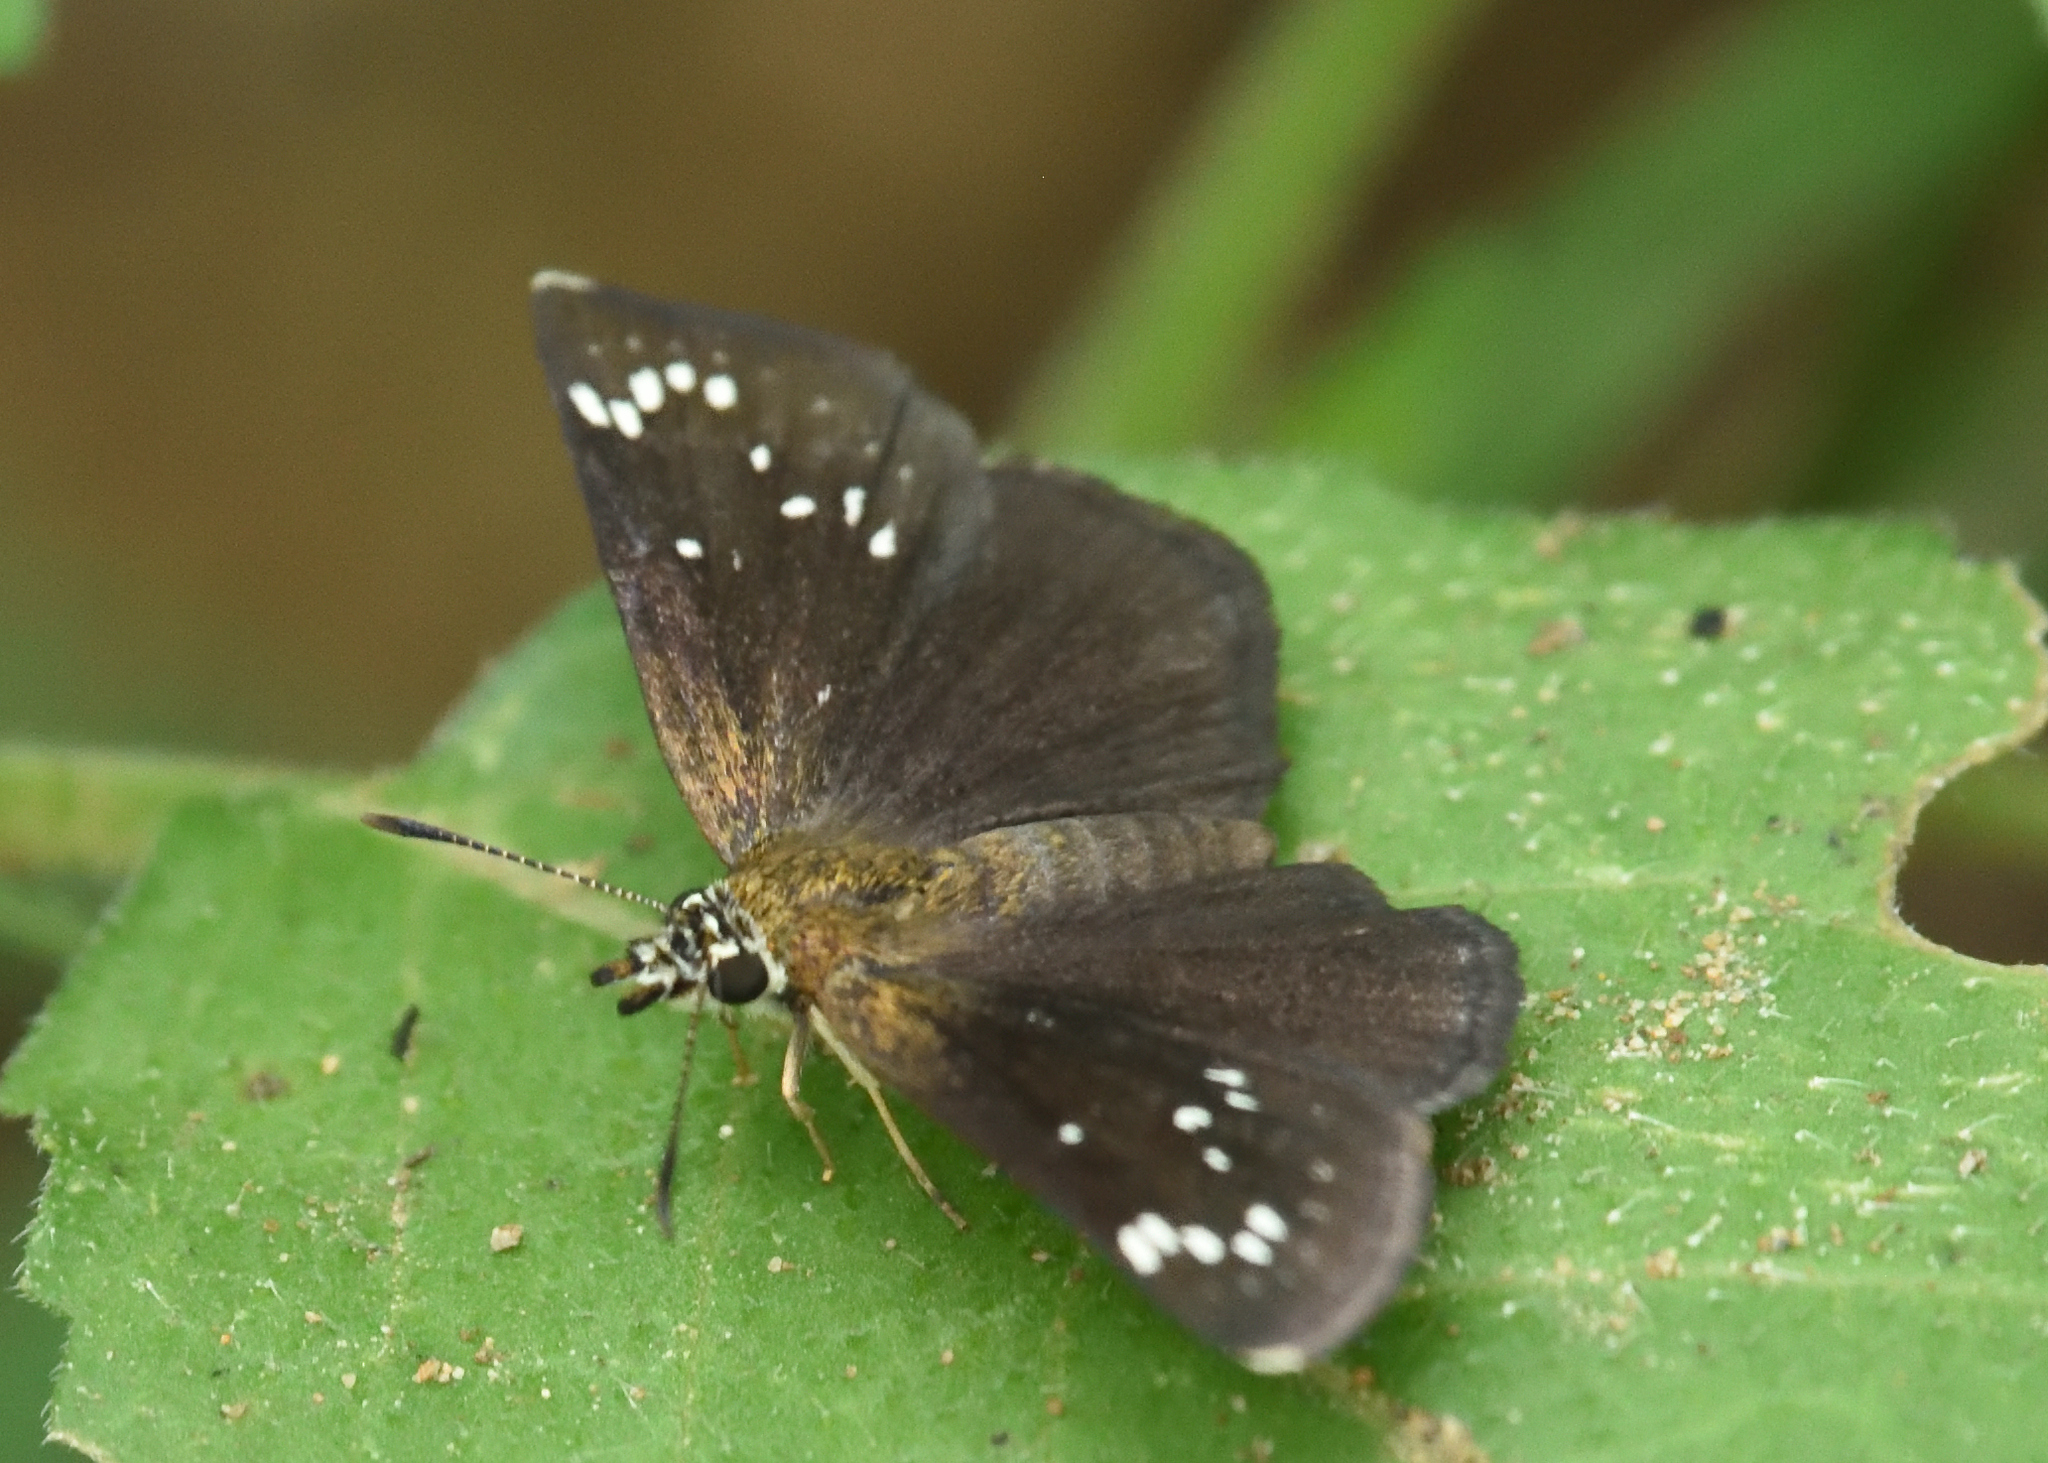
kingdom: Animalia
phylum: Arthropoda
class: Insecta
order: Lepidoptera
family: Hesperiidae
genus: Pholisora
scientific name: Pholisora catullus
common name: Common sootywing
